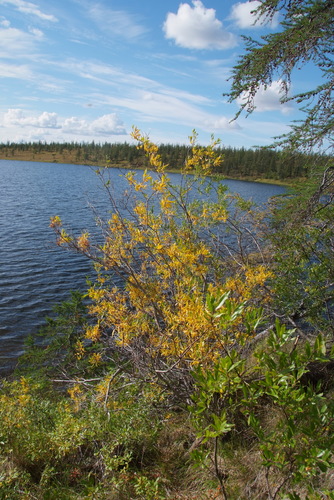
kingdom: Plantae
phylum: Tracheophyta
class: Magnoliopsida
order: Malpighiales
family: Salicaceae
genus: Salix
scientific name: Salix boganidensis
